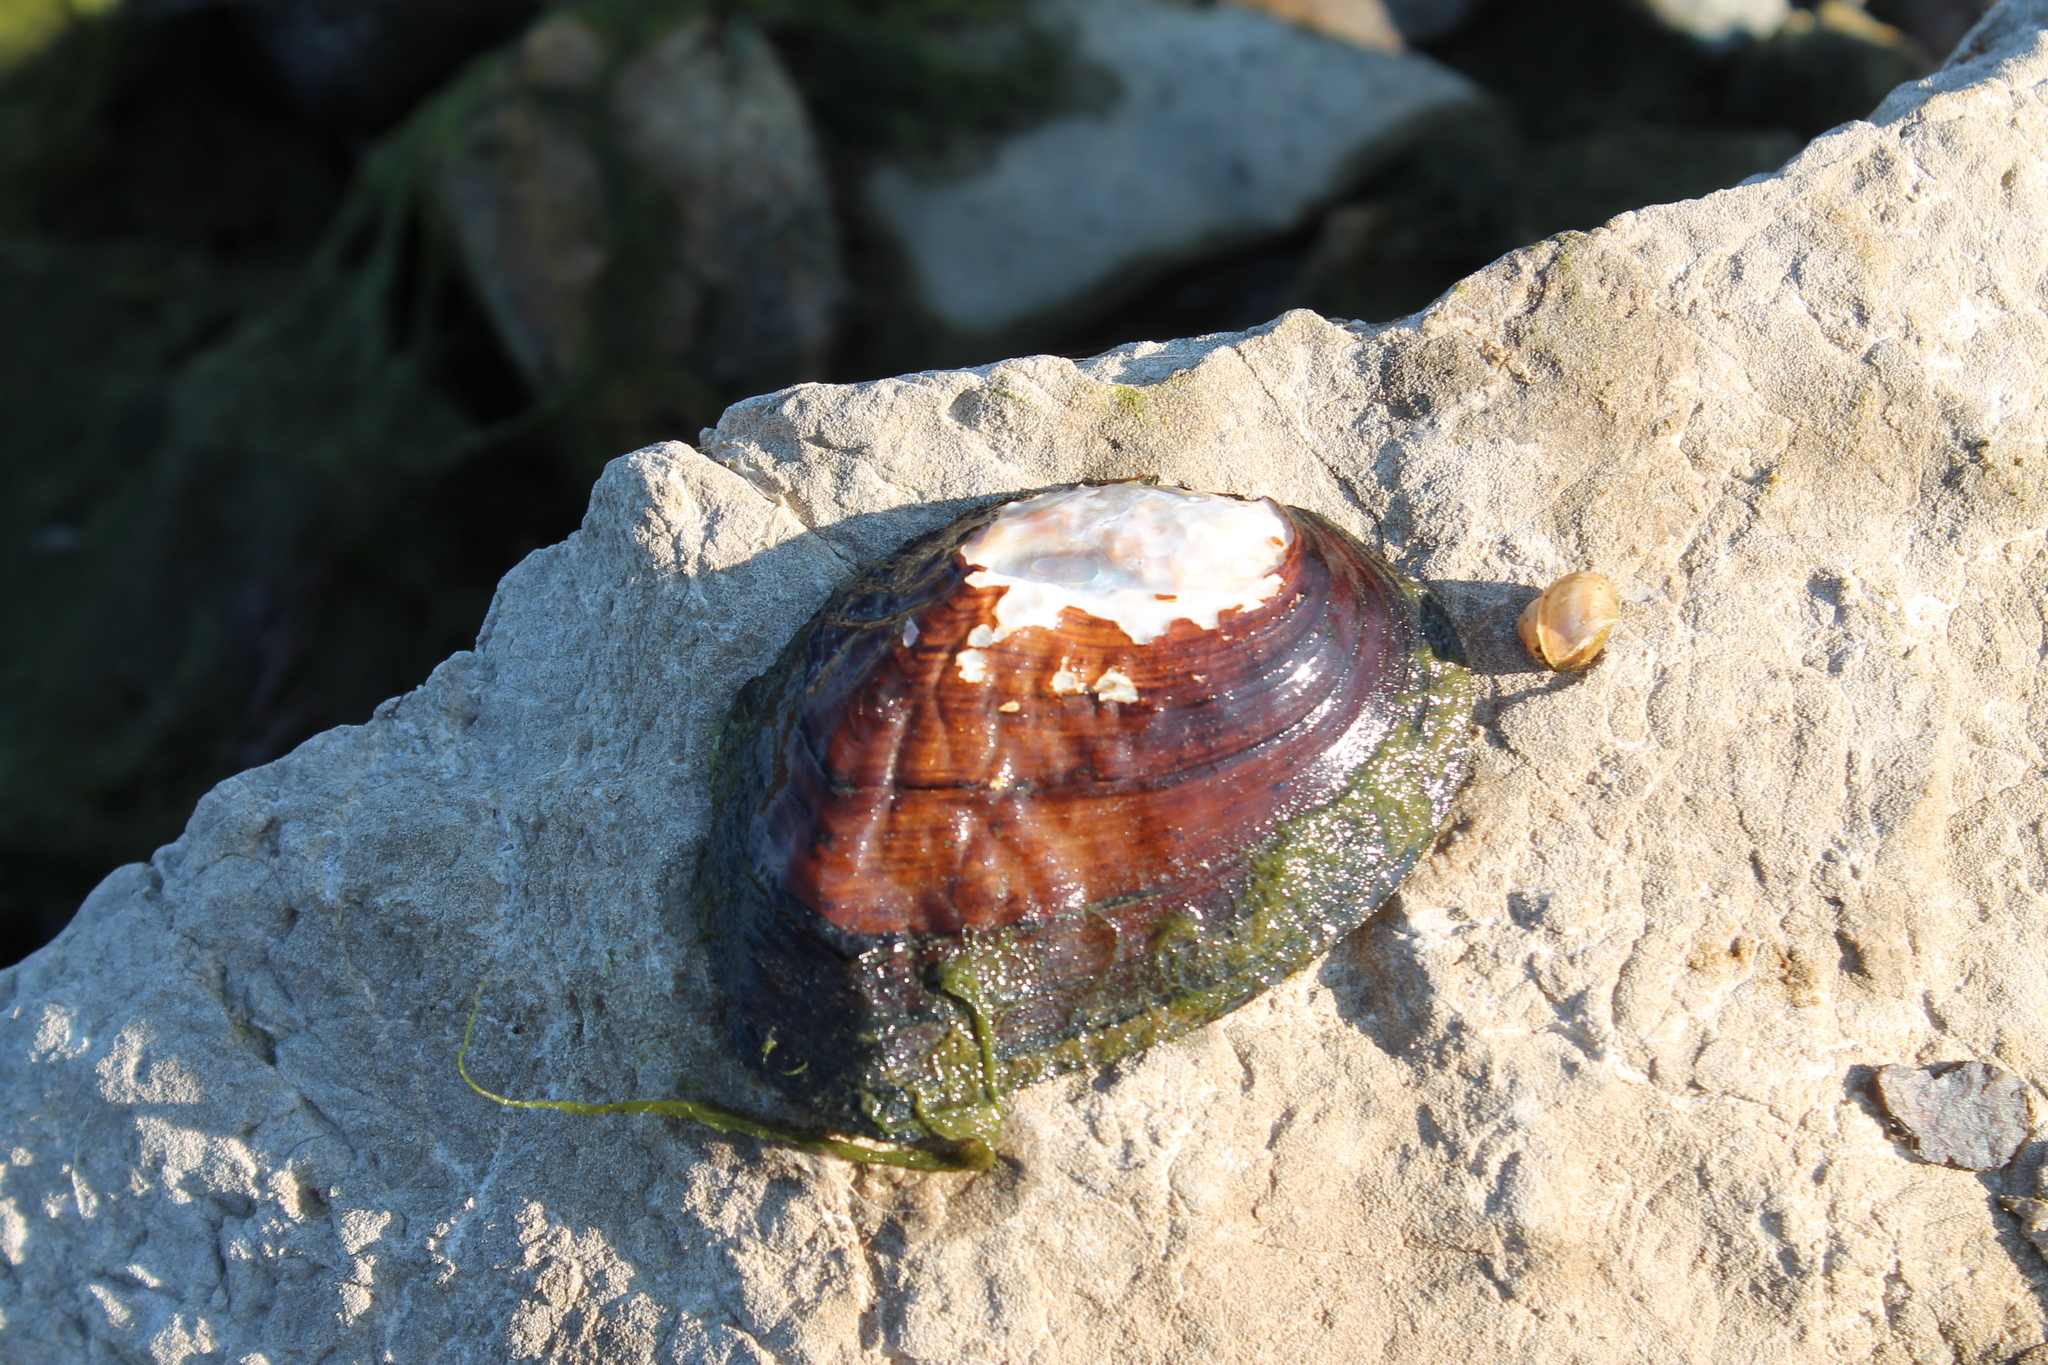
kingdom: Animalia
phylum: Mollusca
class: Bivalvia
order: Unionida
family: Unionidae
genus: Plectomerus
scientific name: Plectomerus dombeyanus
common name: Bankclimber
